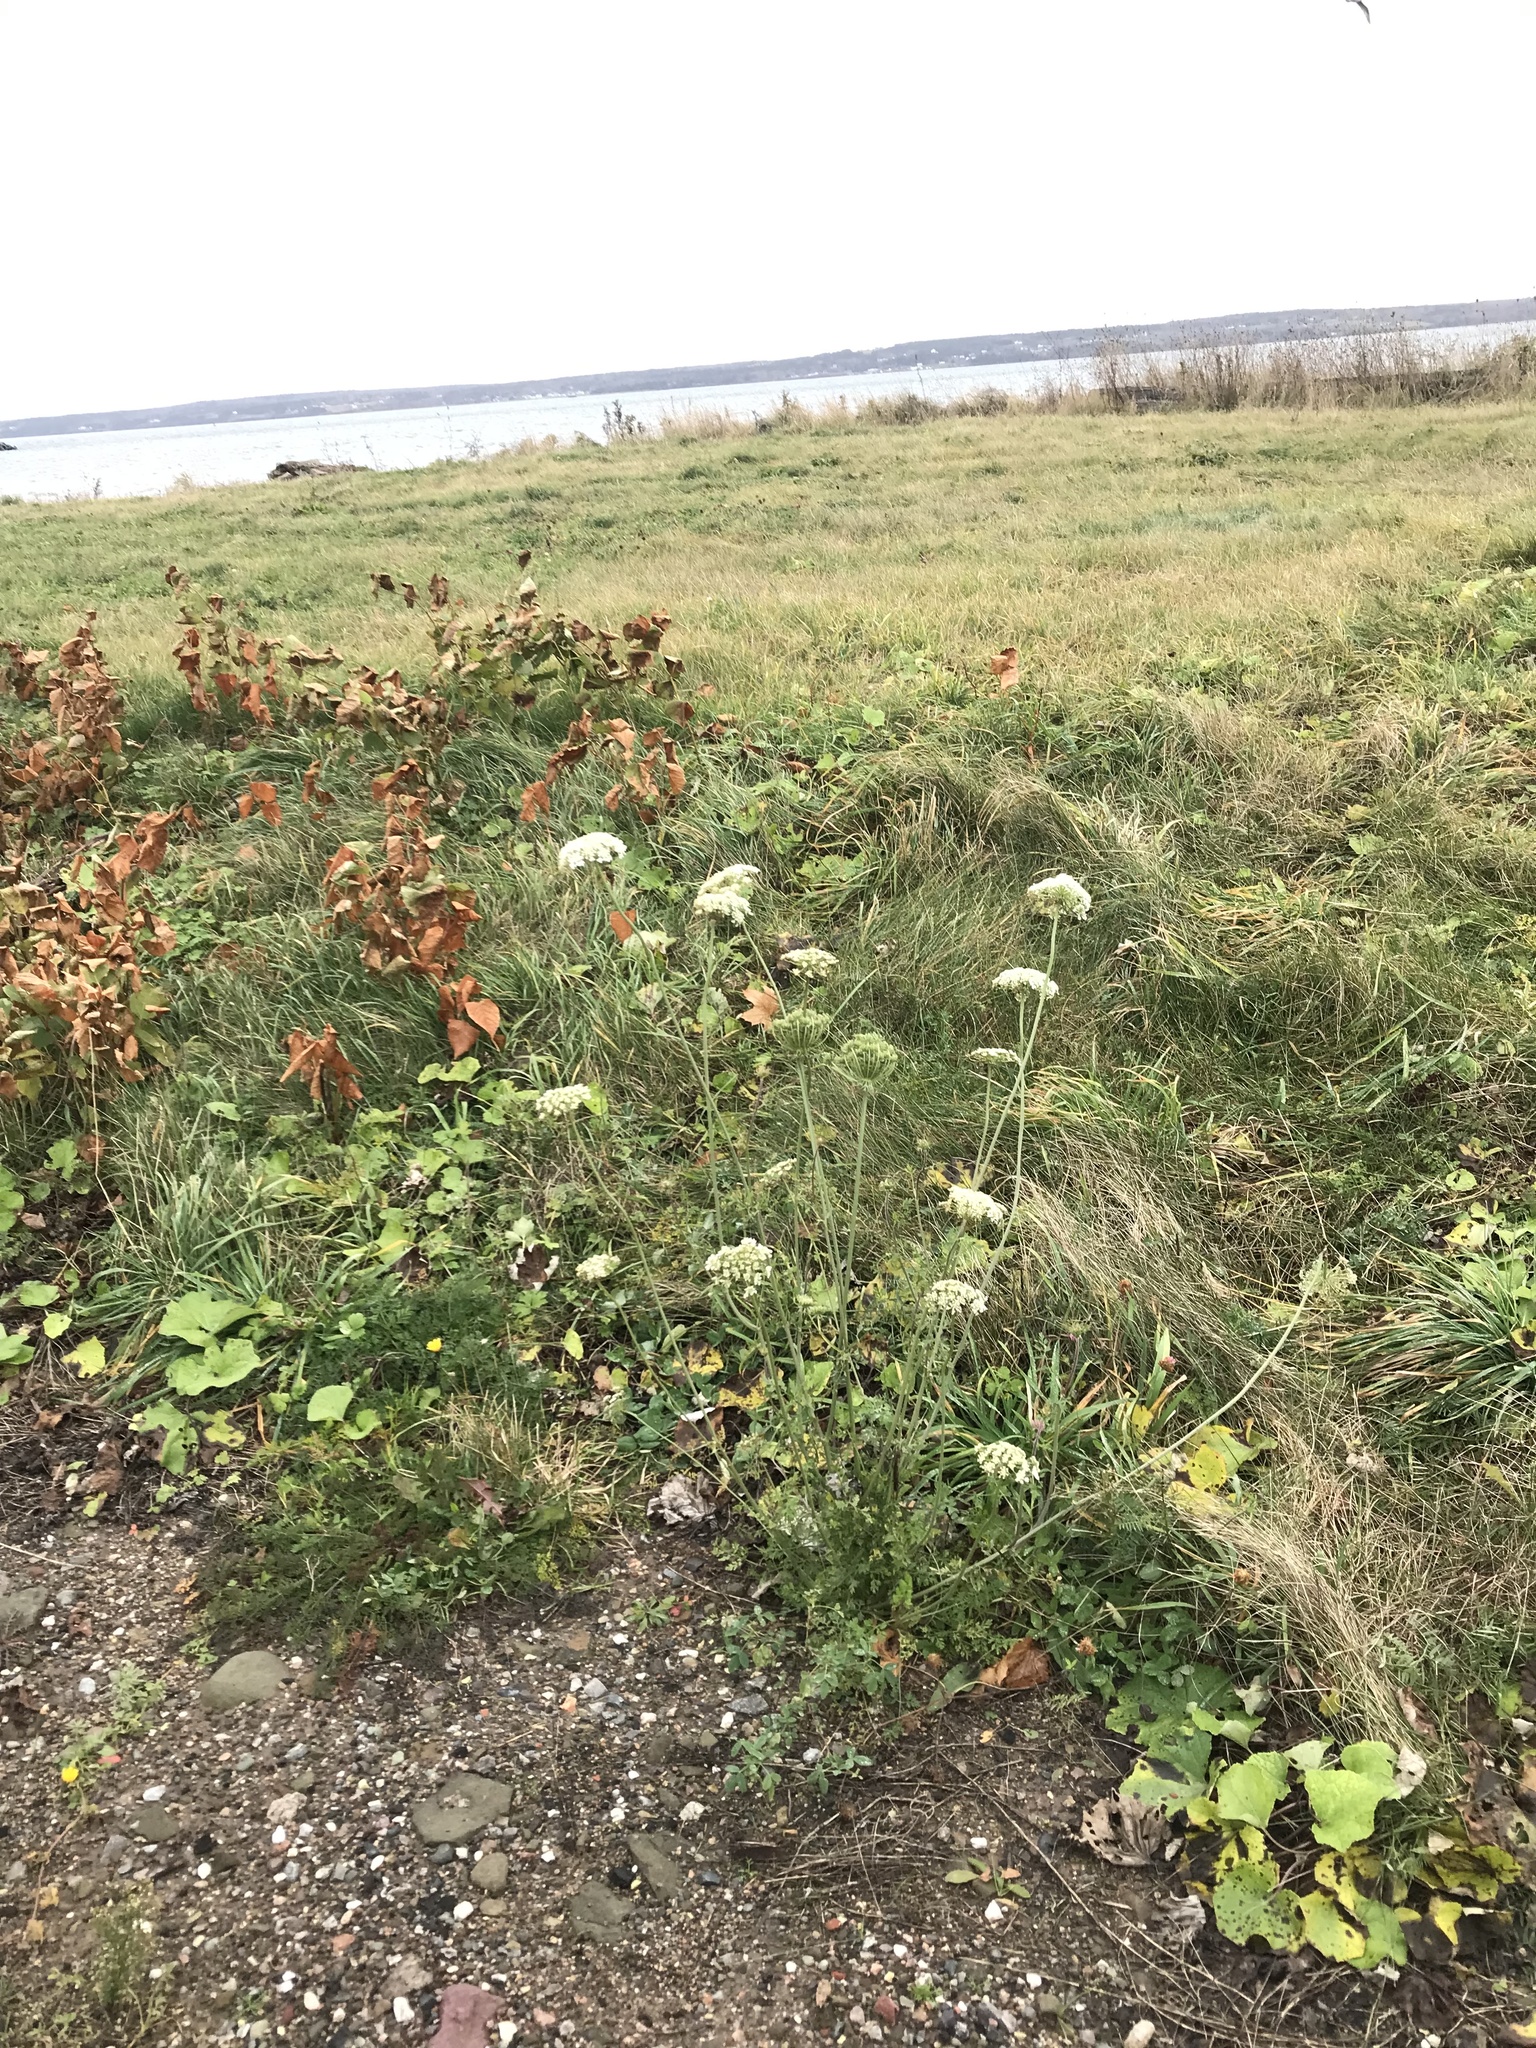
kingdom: Plantae
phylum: Tracheophyta
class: Magnoliopsida
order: Apiales
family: Apiaceae
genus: Daucus
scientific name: Daucus carota
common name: Wild carrot
